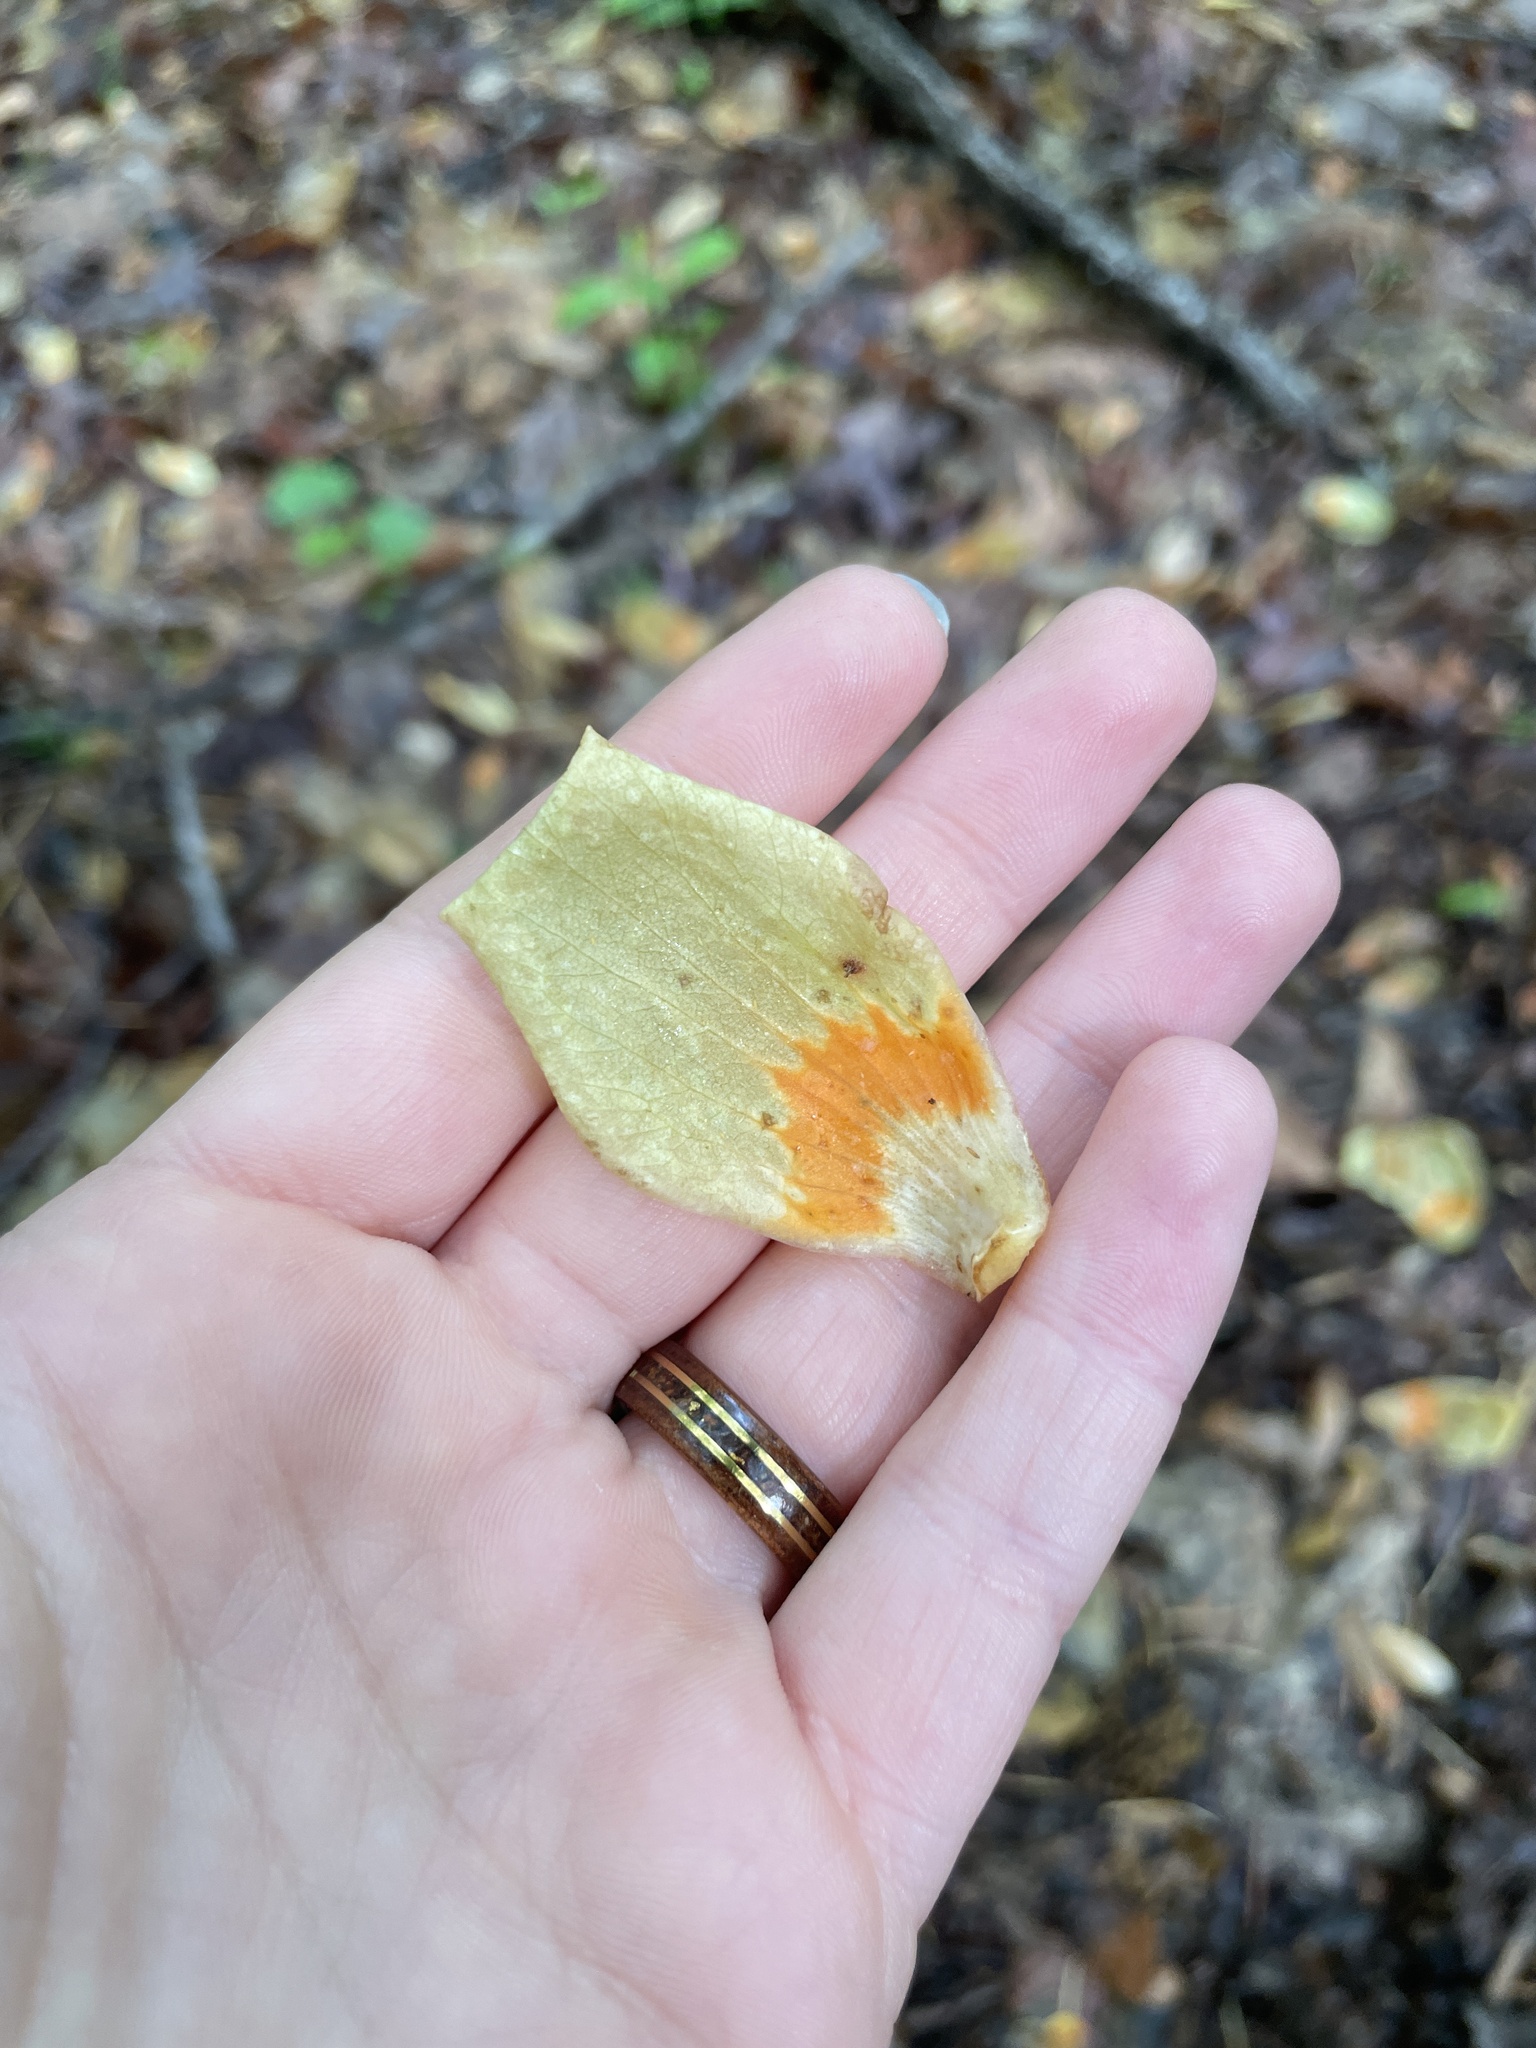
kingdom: Plantae
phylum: Tracheophyta
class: Magnoliopsida
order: Magnoliales
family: Magnoliaceae
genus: Liriodendron
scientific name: Liriodendron tulipifera
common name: Tulip tree
